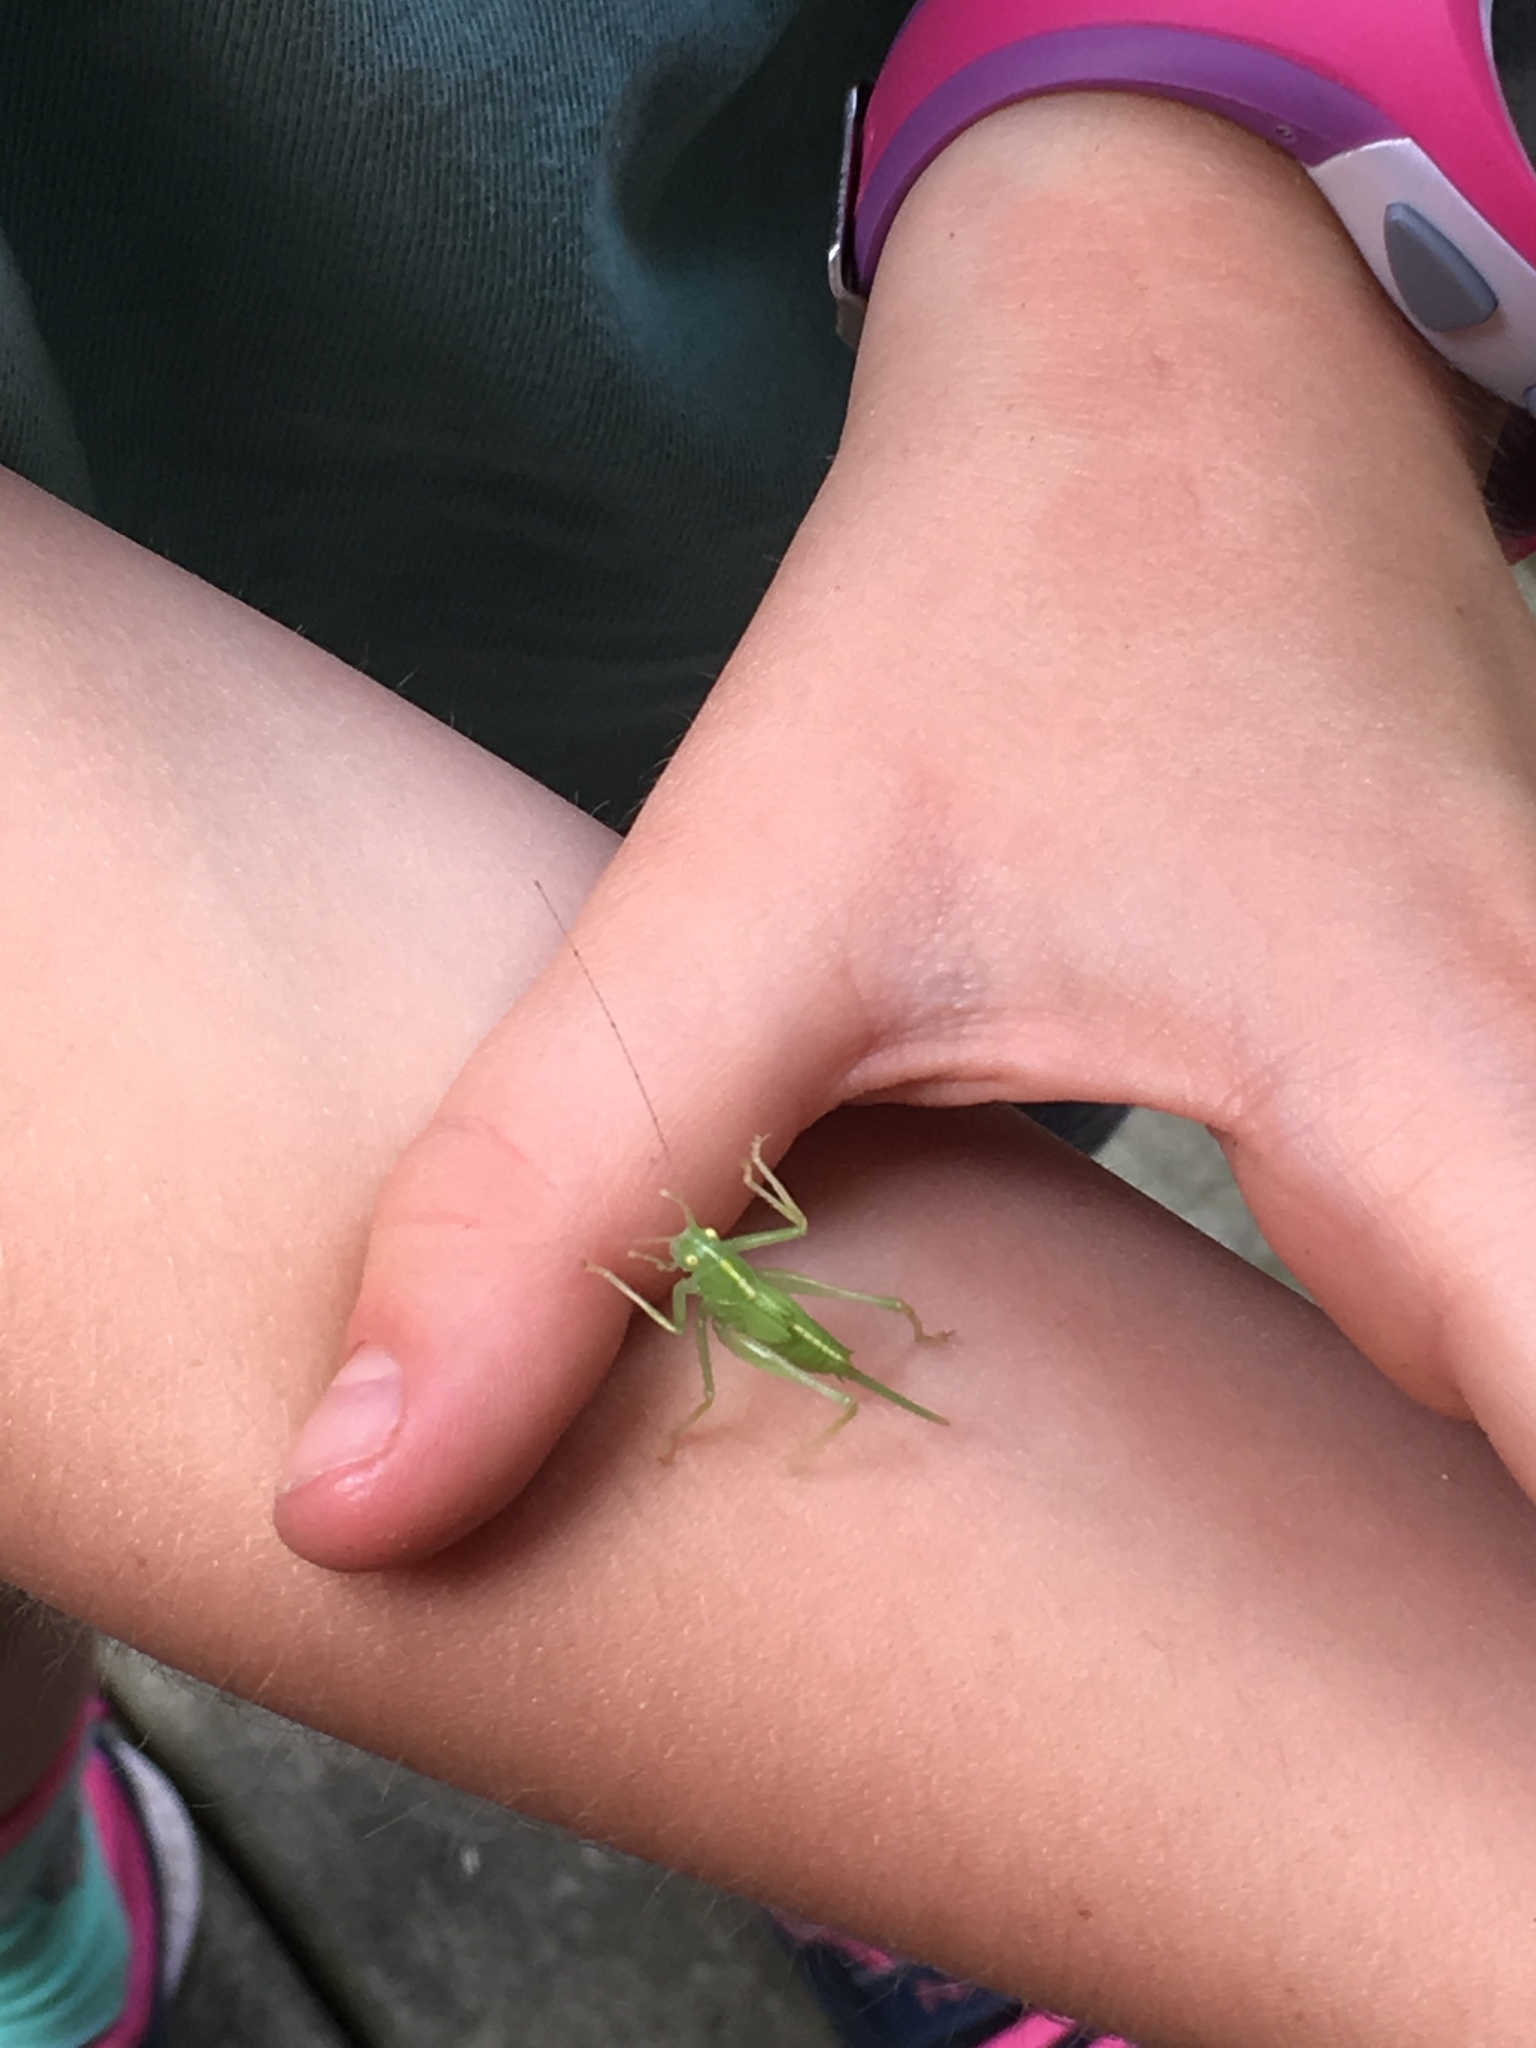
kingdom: Animalia
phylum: Arthropoda
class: Insecta
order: Orthoptera
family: Tettigoniidae
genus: Meconema
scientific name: Meconema thalassinum
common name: Oak bush-cricket
